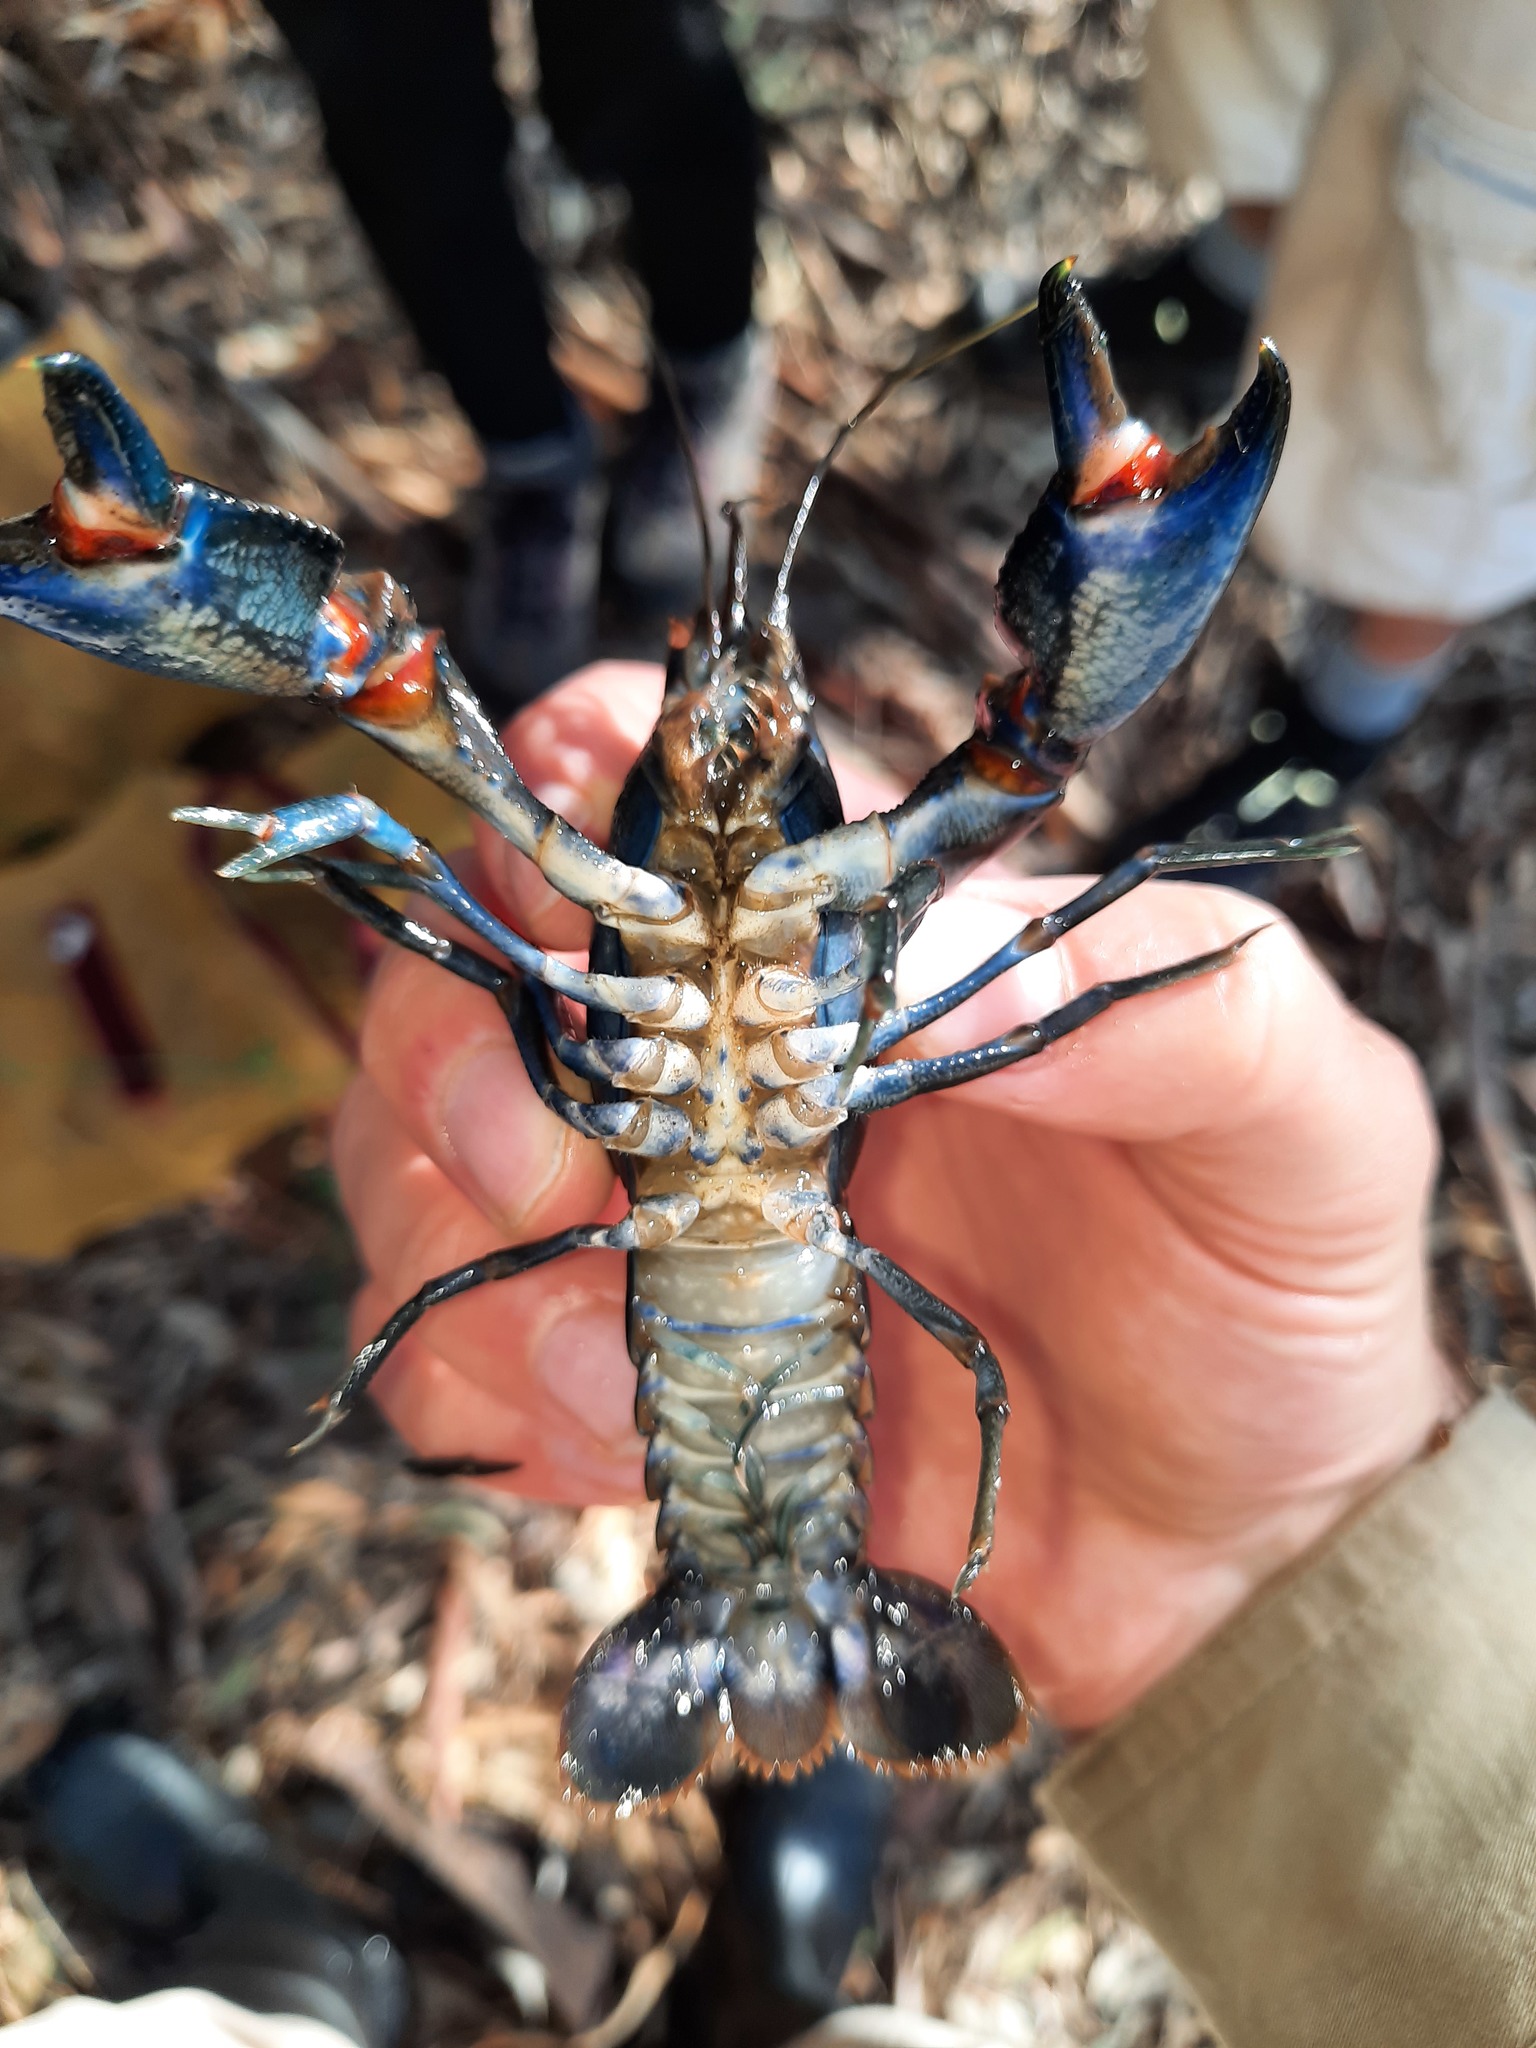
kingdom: Animalia
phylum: Arthropoda
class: Malacostraca
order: Decapoda
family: Parastacidae
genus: Cherax
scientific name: Cherax destructor
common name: Yabby
